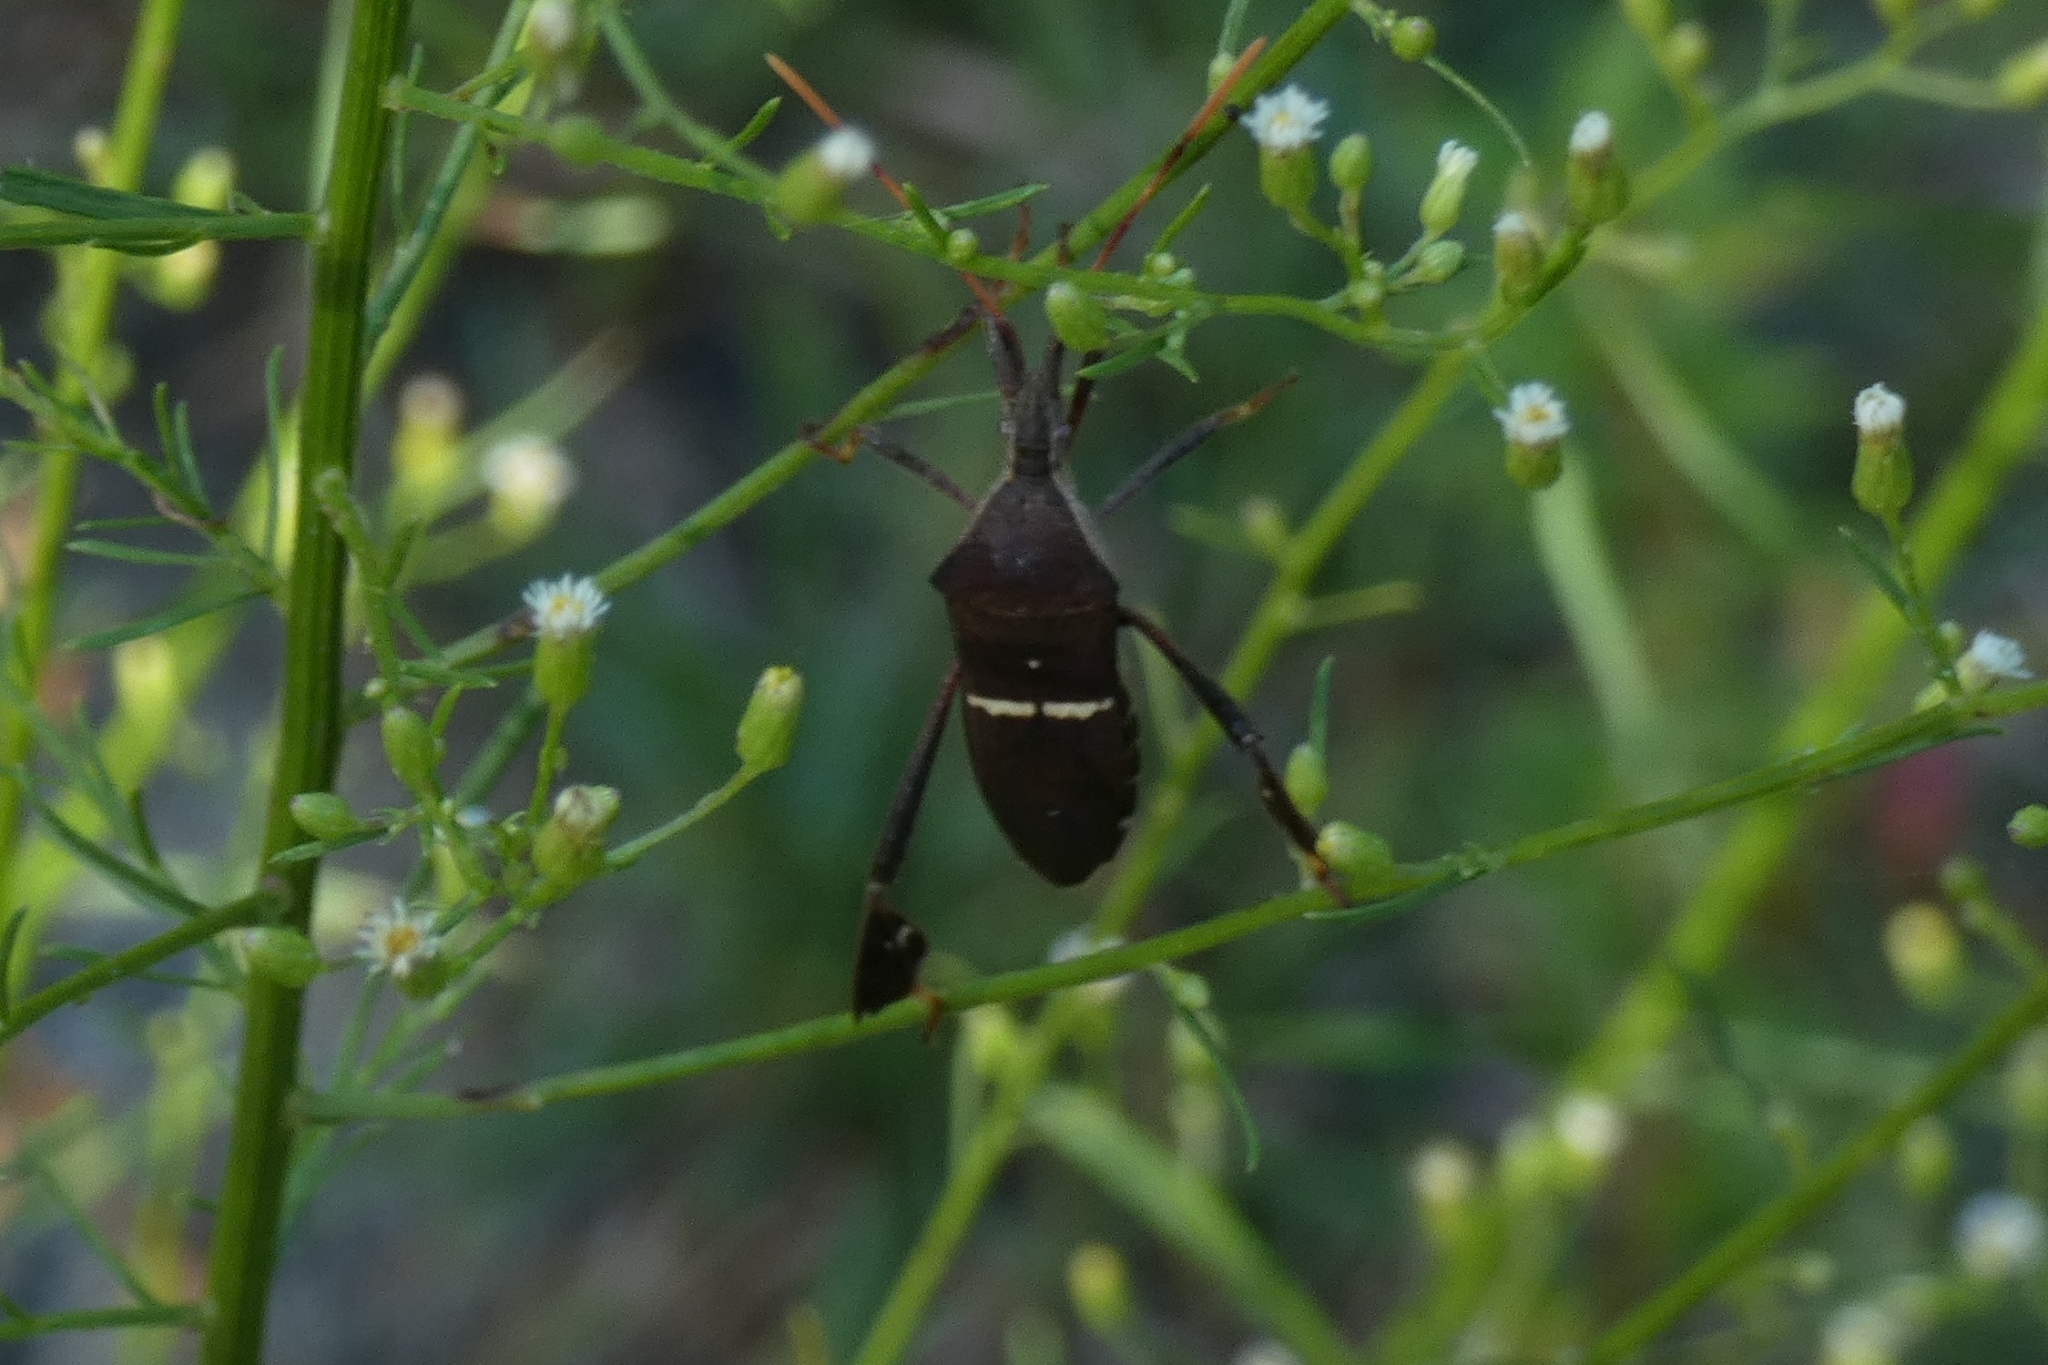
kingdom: Animalia
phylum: Arthropoda
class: Insecta
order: Hemiptera
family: Coreidae
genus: Leptoglossus
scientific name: Leptoglossus phyllopus
